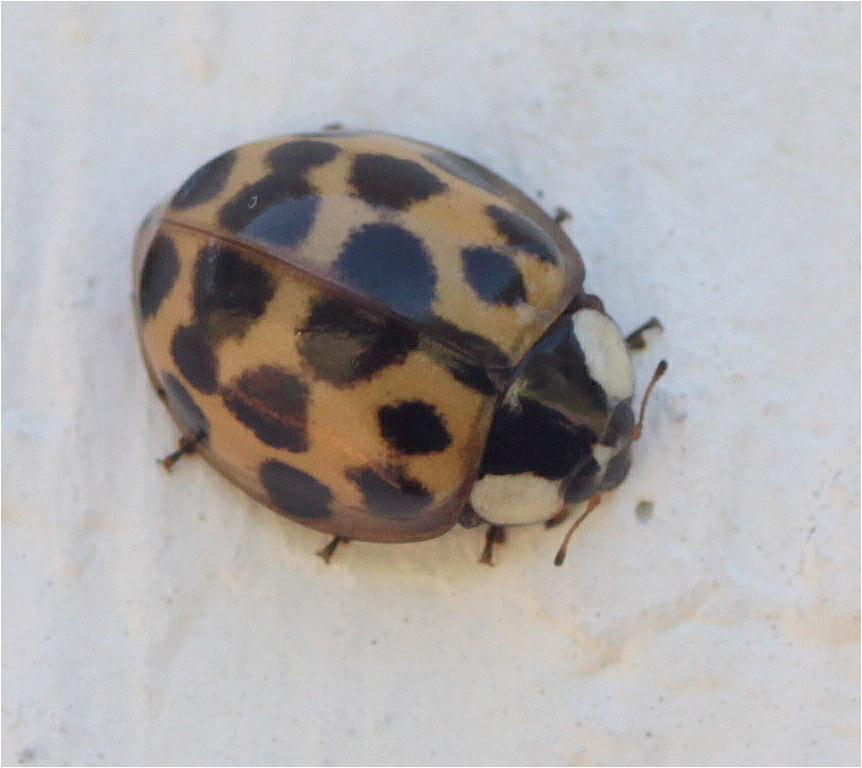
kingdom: Animalia
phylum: Arthropoda
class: Insecta
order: Coleoptera
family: Coccinellidae
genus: Harmonia
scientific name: Harmonia axyridis
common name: Harlequin ladybird
